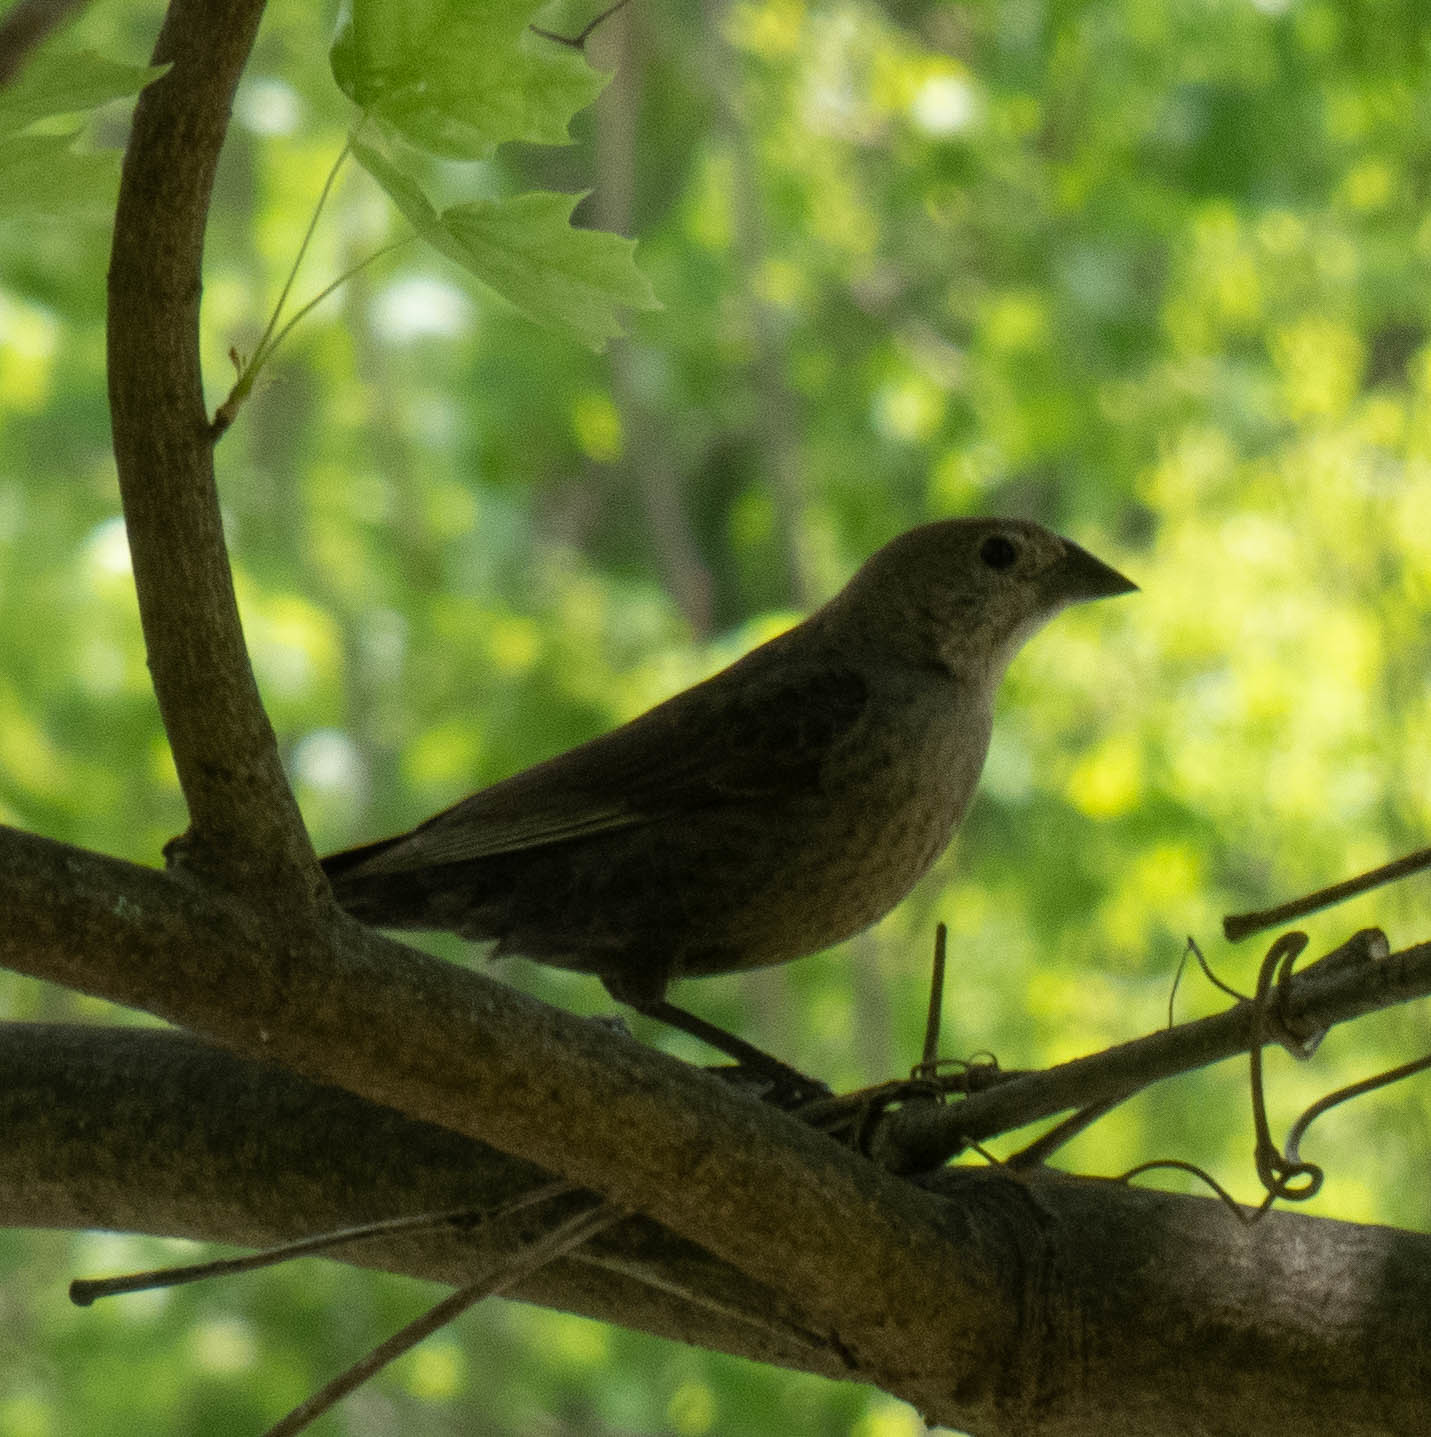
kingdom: Animalia
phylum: Chordata
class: Aves
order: Passeriformes
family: Icteridae
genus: Molothrus
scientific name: Molothrus ater
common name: Brown-headed cowbird
